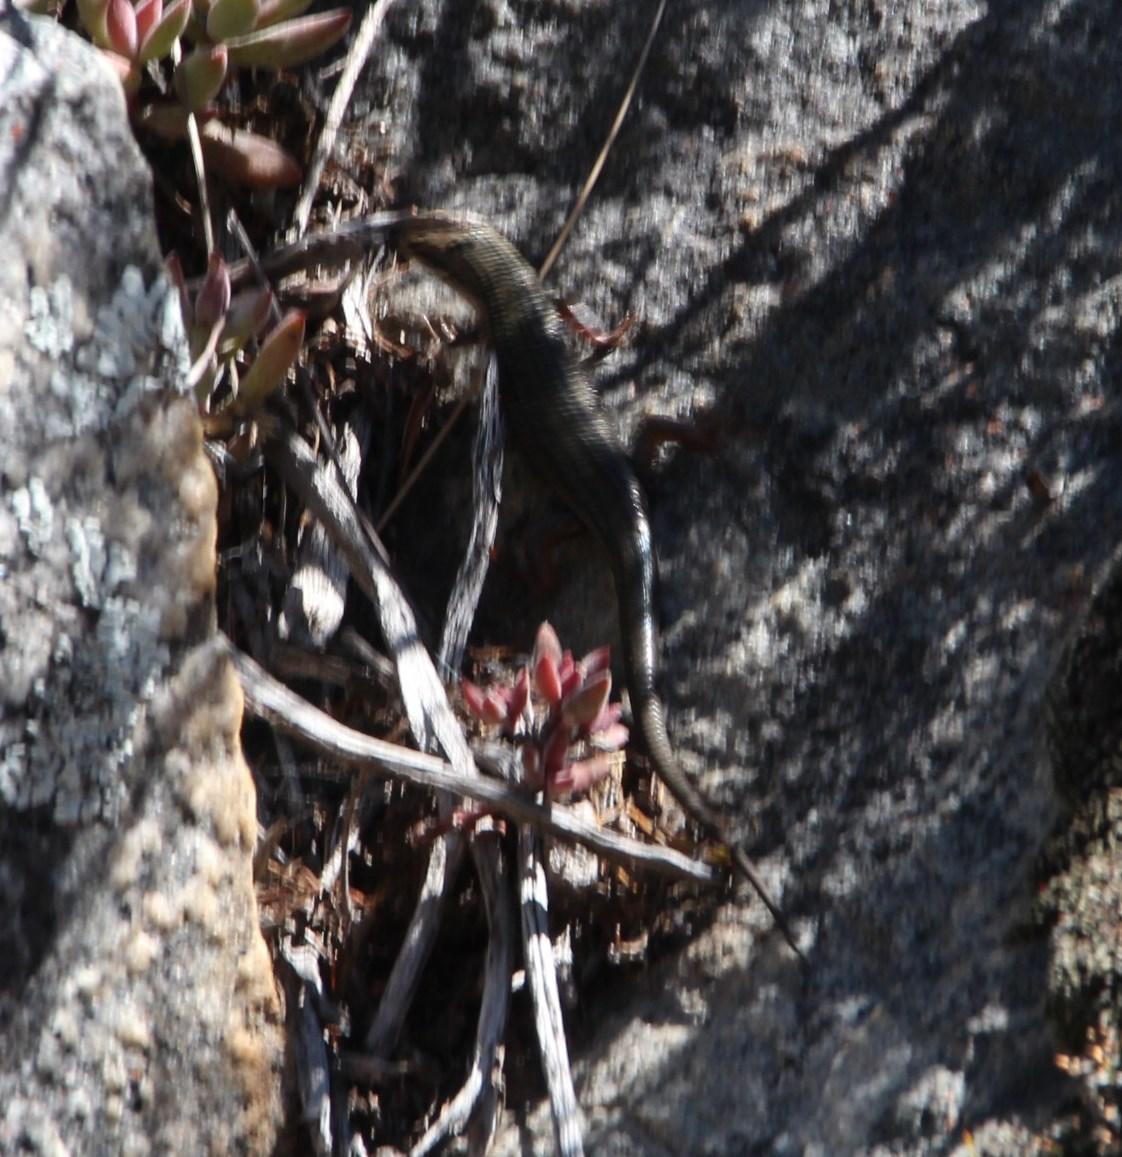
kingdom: Animalia
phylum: Chordata
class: Squamata
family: Scincidae
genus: Trachylepis
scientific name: Trachylepis homalocephala
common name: Red-sided skink
